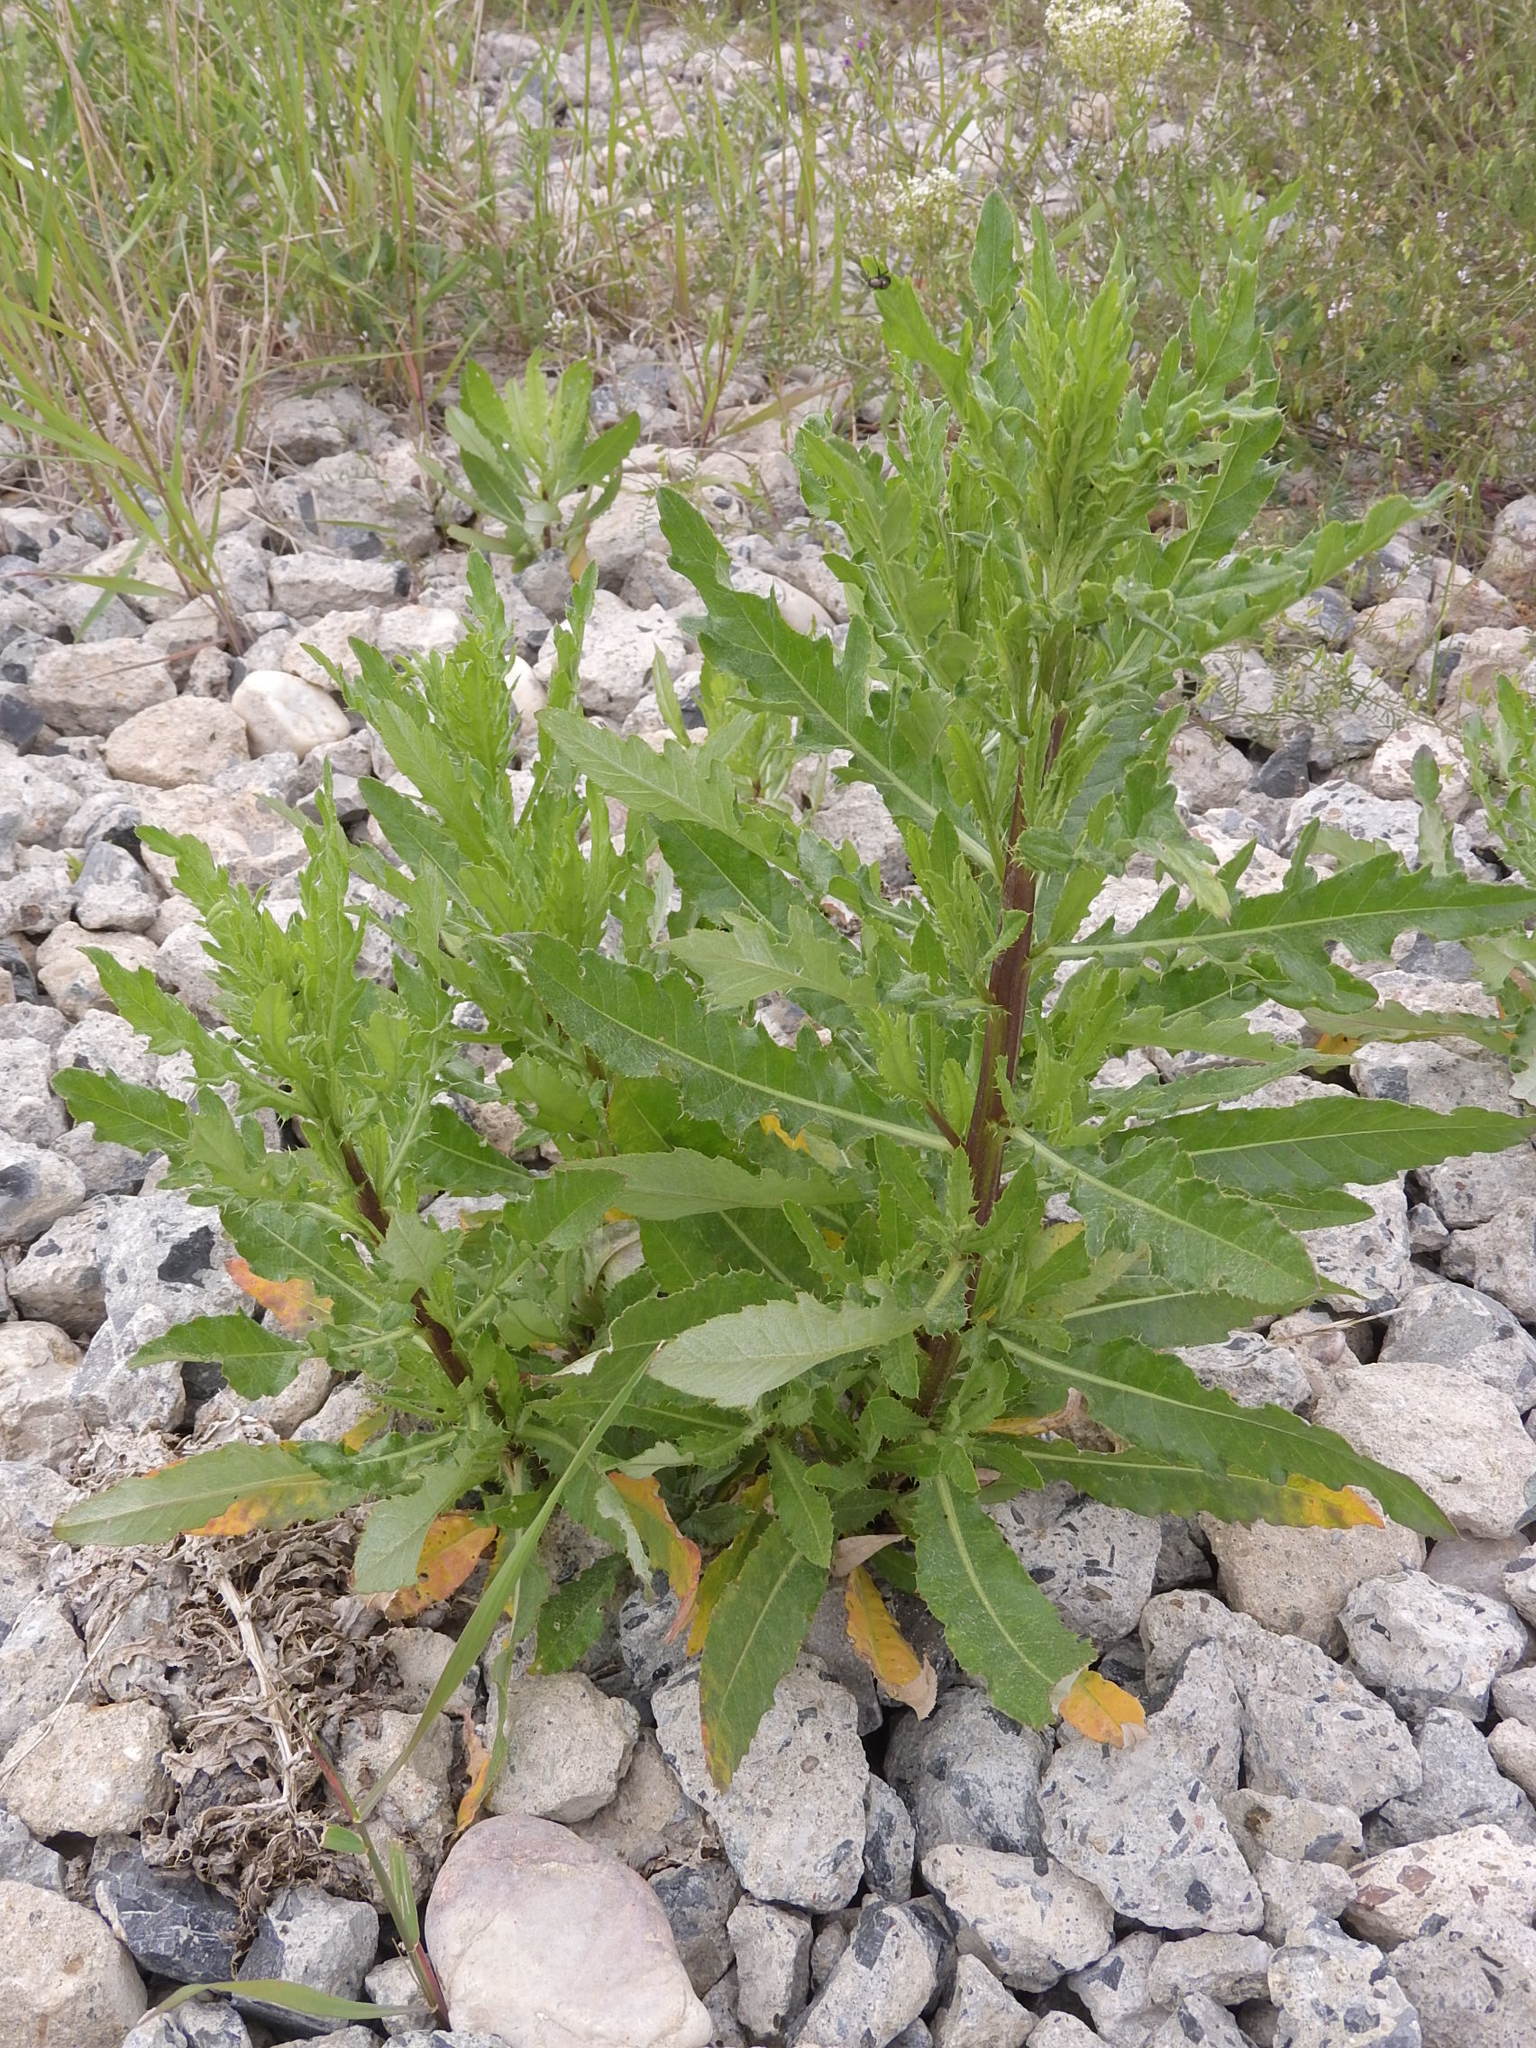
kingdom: Plantae
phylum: Tracheophyta
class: Magnoliopsida
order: Asterales
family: Asteraceae
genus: Cirsium
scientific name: Cirsium arvense
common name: Creeping thistle
